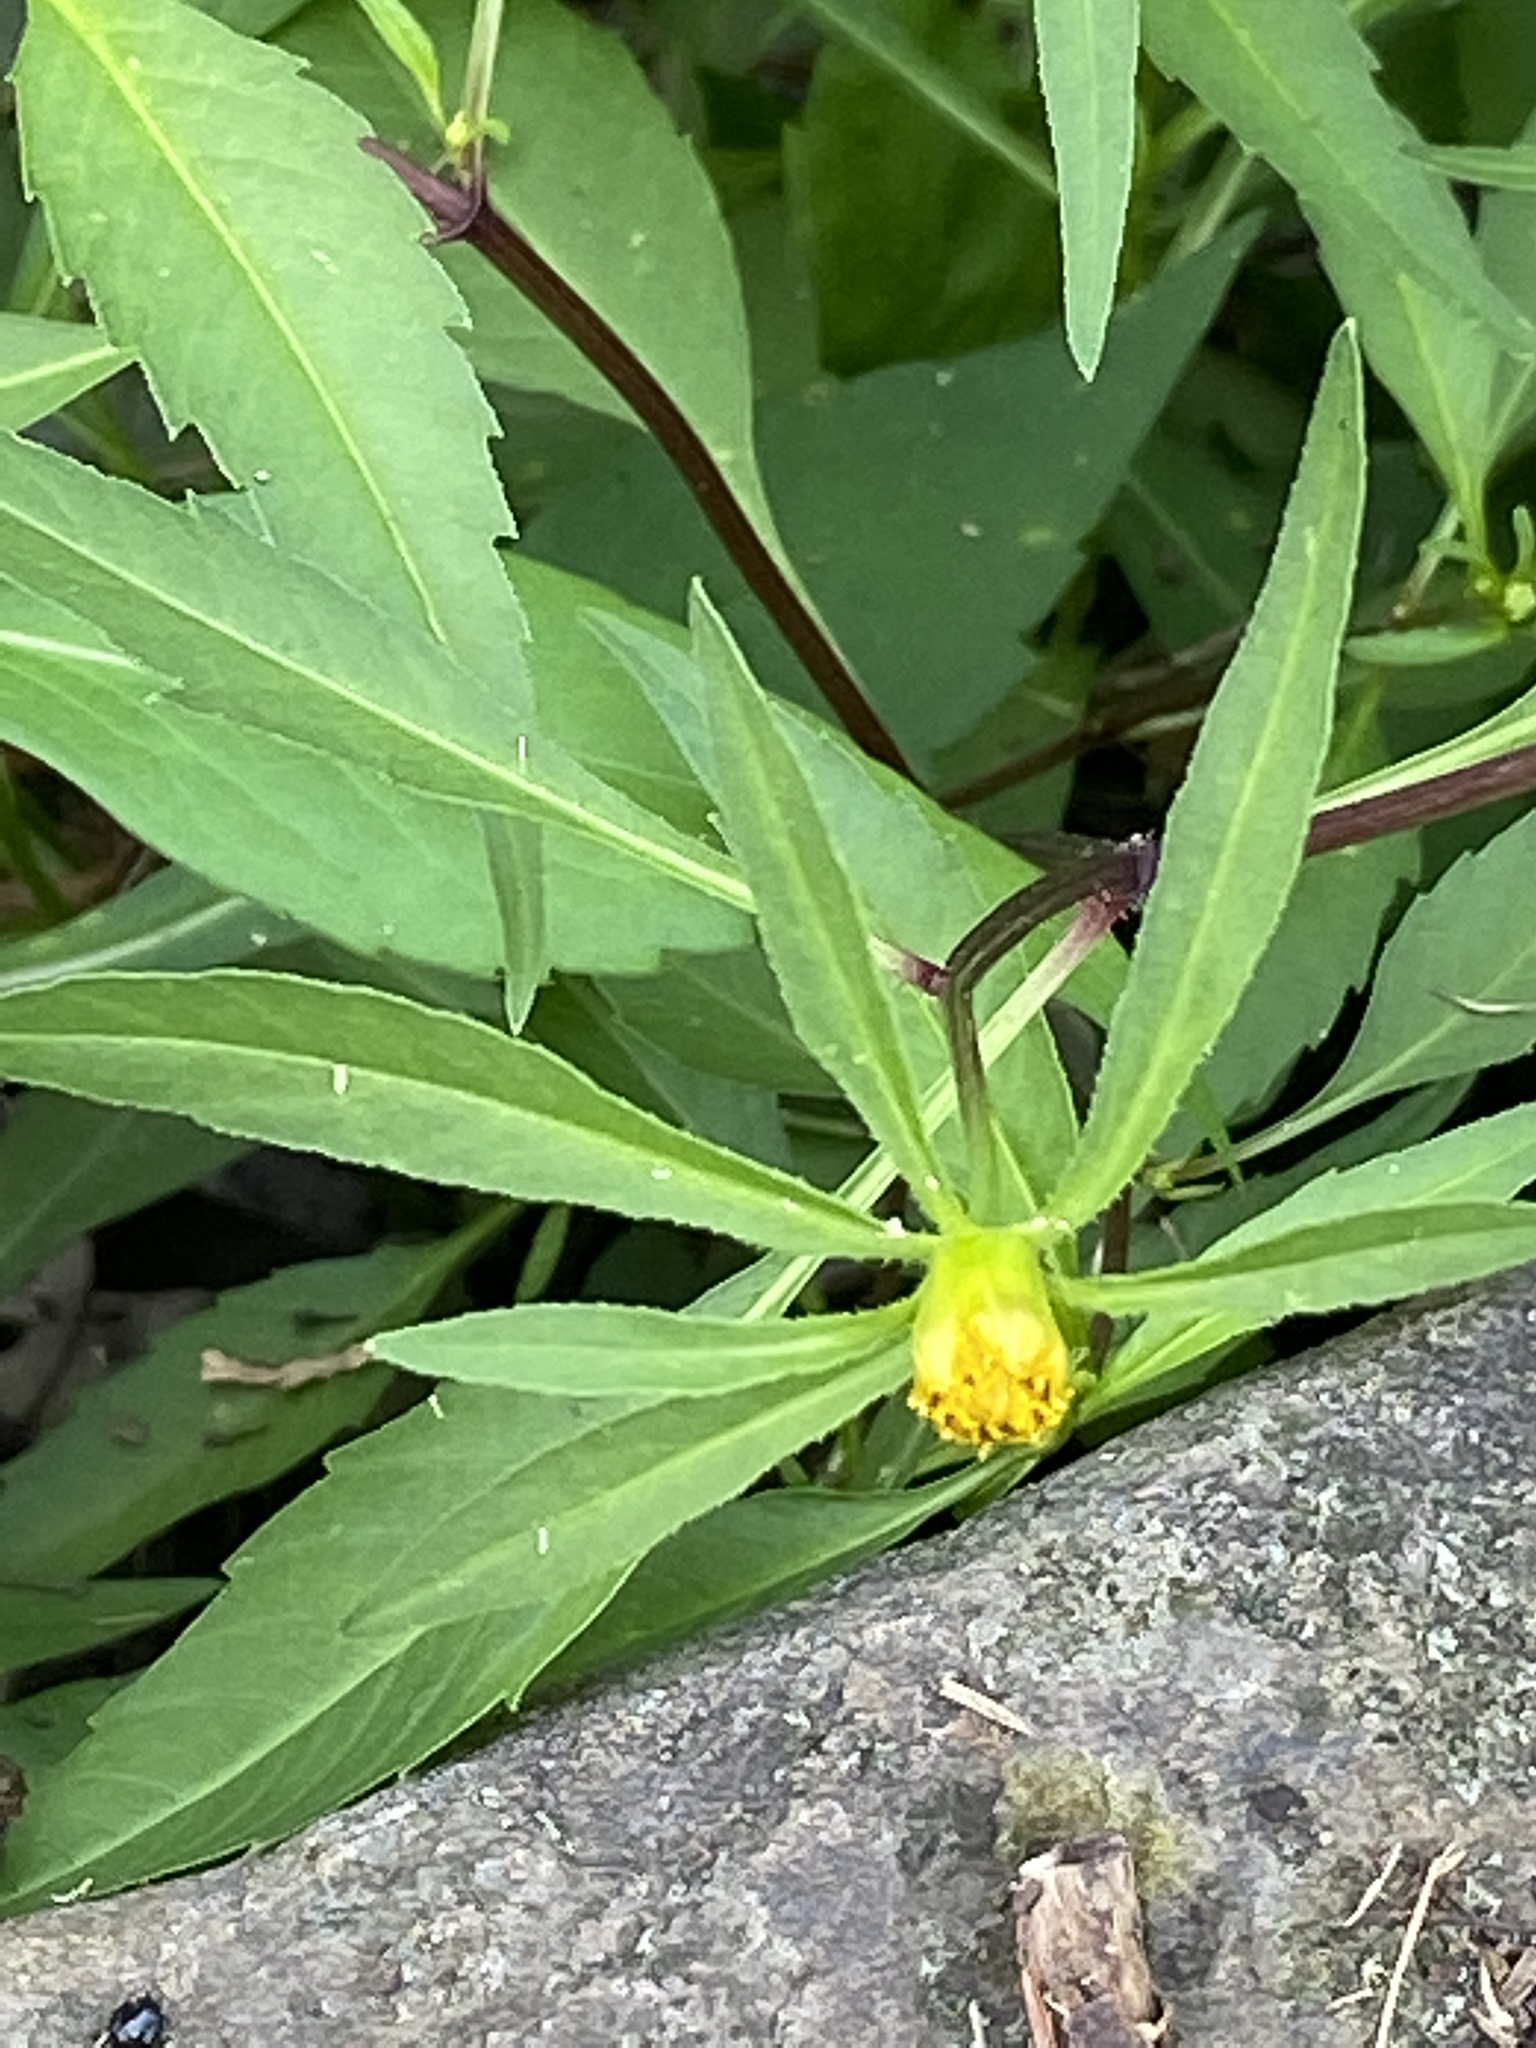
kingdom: Plantae
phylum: Tracheophyta
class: Magnoliopsida
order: Asterales
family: Asteraceae
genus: Bidens
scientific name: Bidens connata
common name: London bur-marigold
